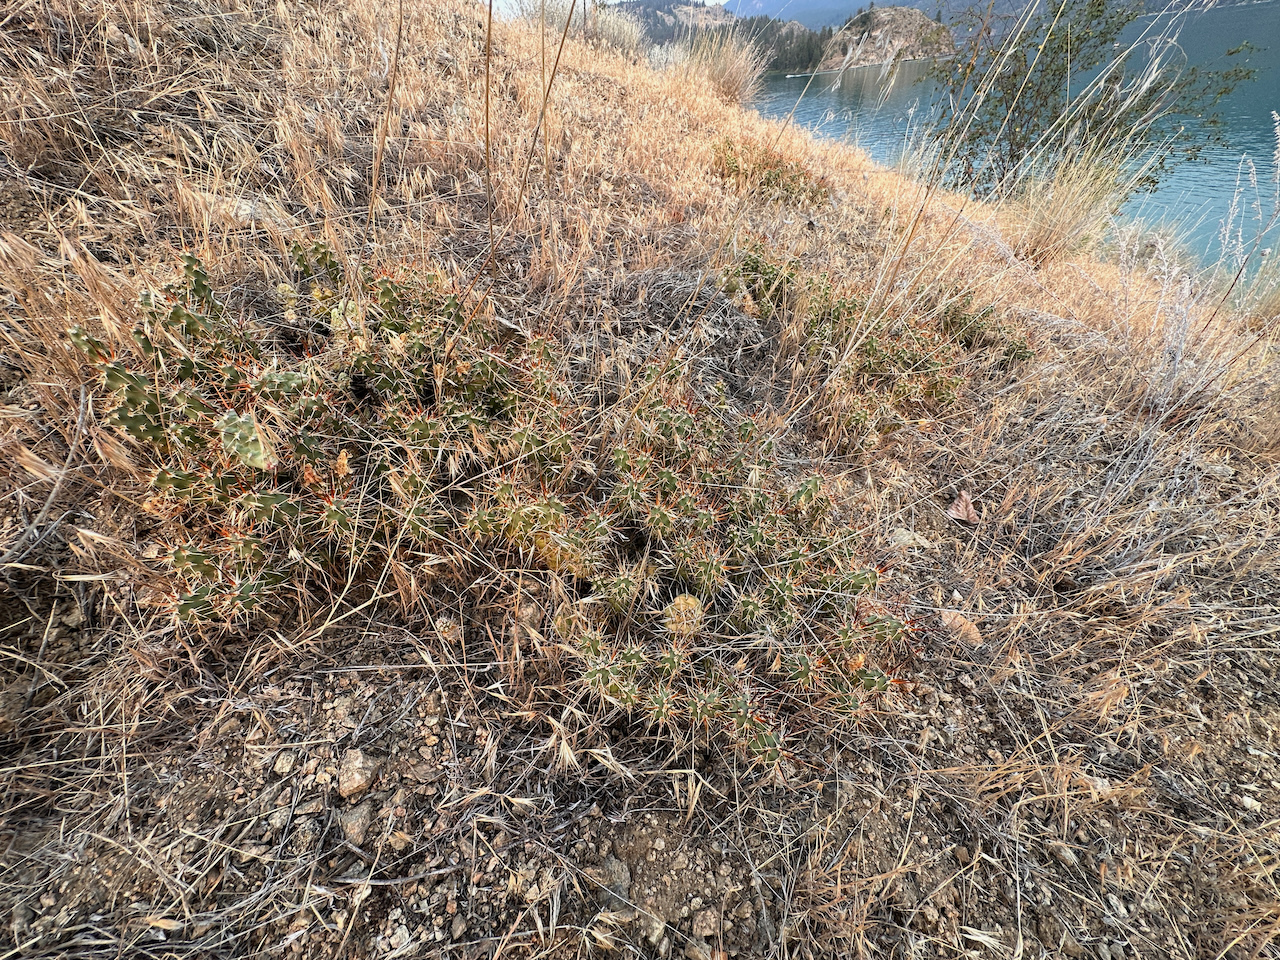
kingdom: Plantae
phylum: Tracheophyta
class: Magnoliopsida
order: Caryophyllales
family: Cactaceae
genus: Opuntia
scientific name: Opuntia fragilis
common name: Brittle cactus
